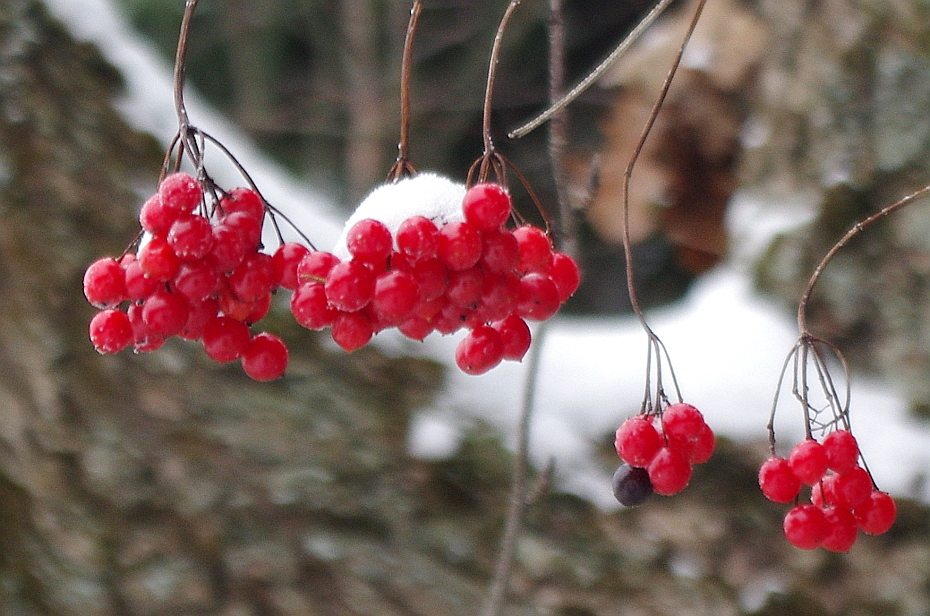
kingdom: Plantae
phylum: Tracheophyta
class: Magnoliopsida
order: Dipsacales
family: Viburnaceae
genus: Viburnum
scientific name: Viburnum opulus
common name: Guelder-rose
